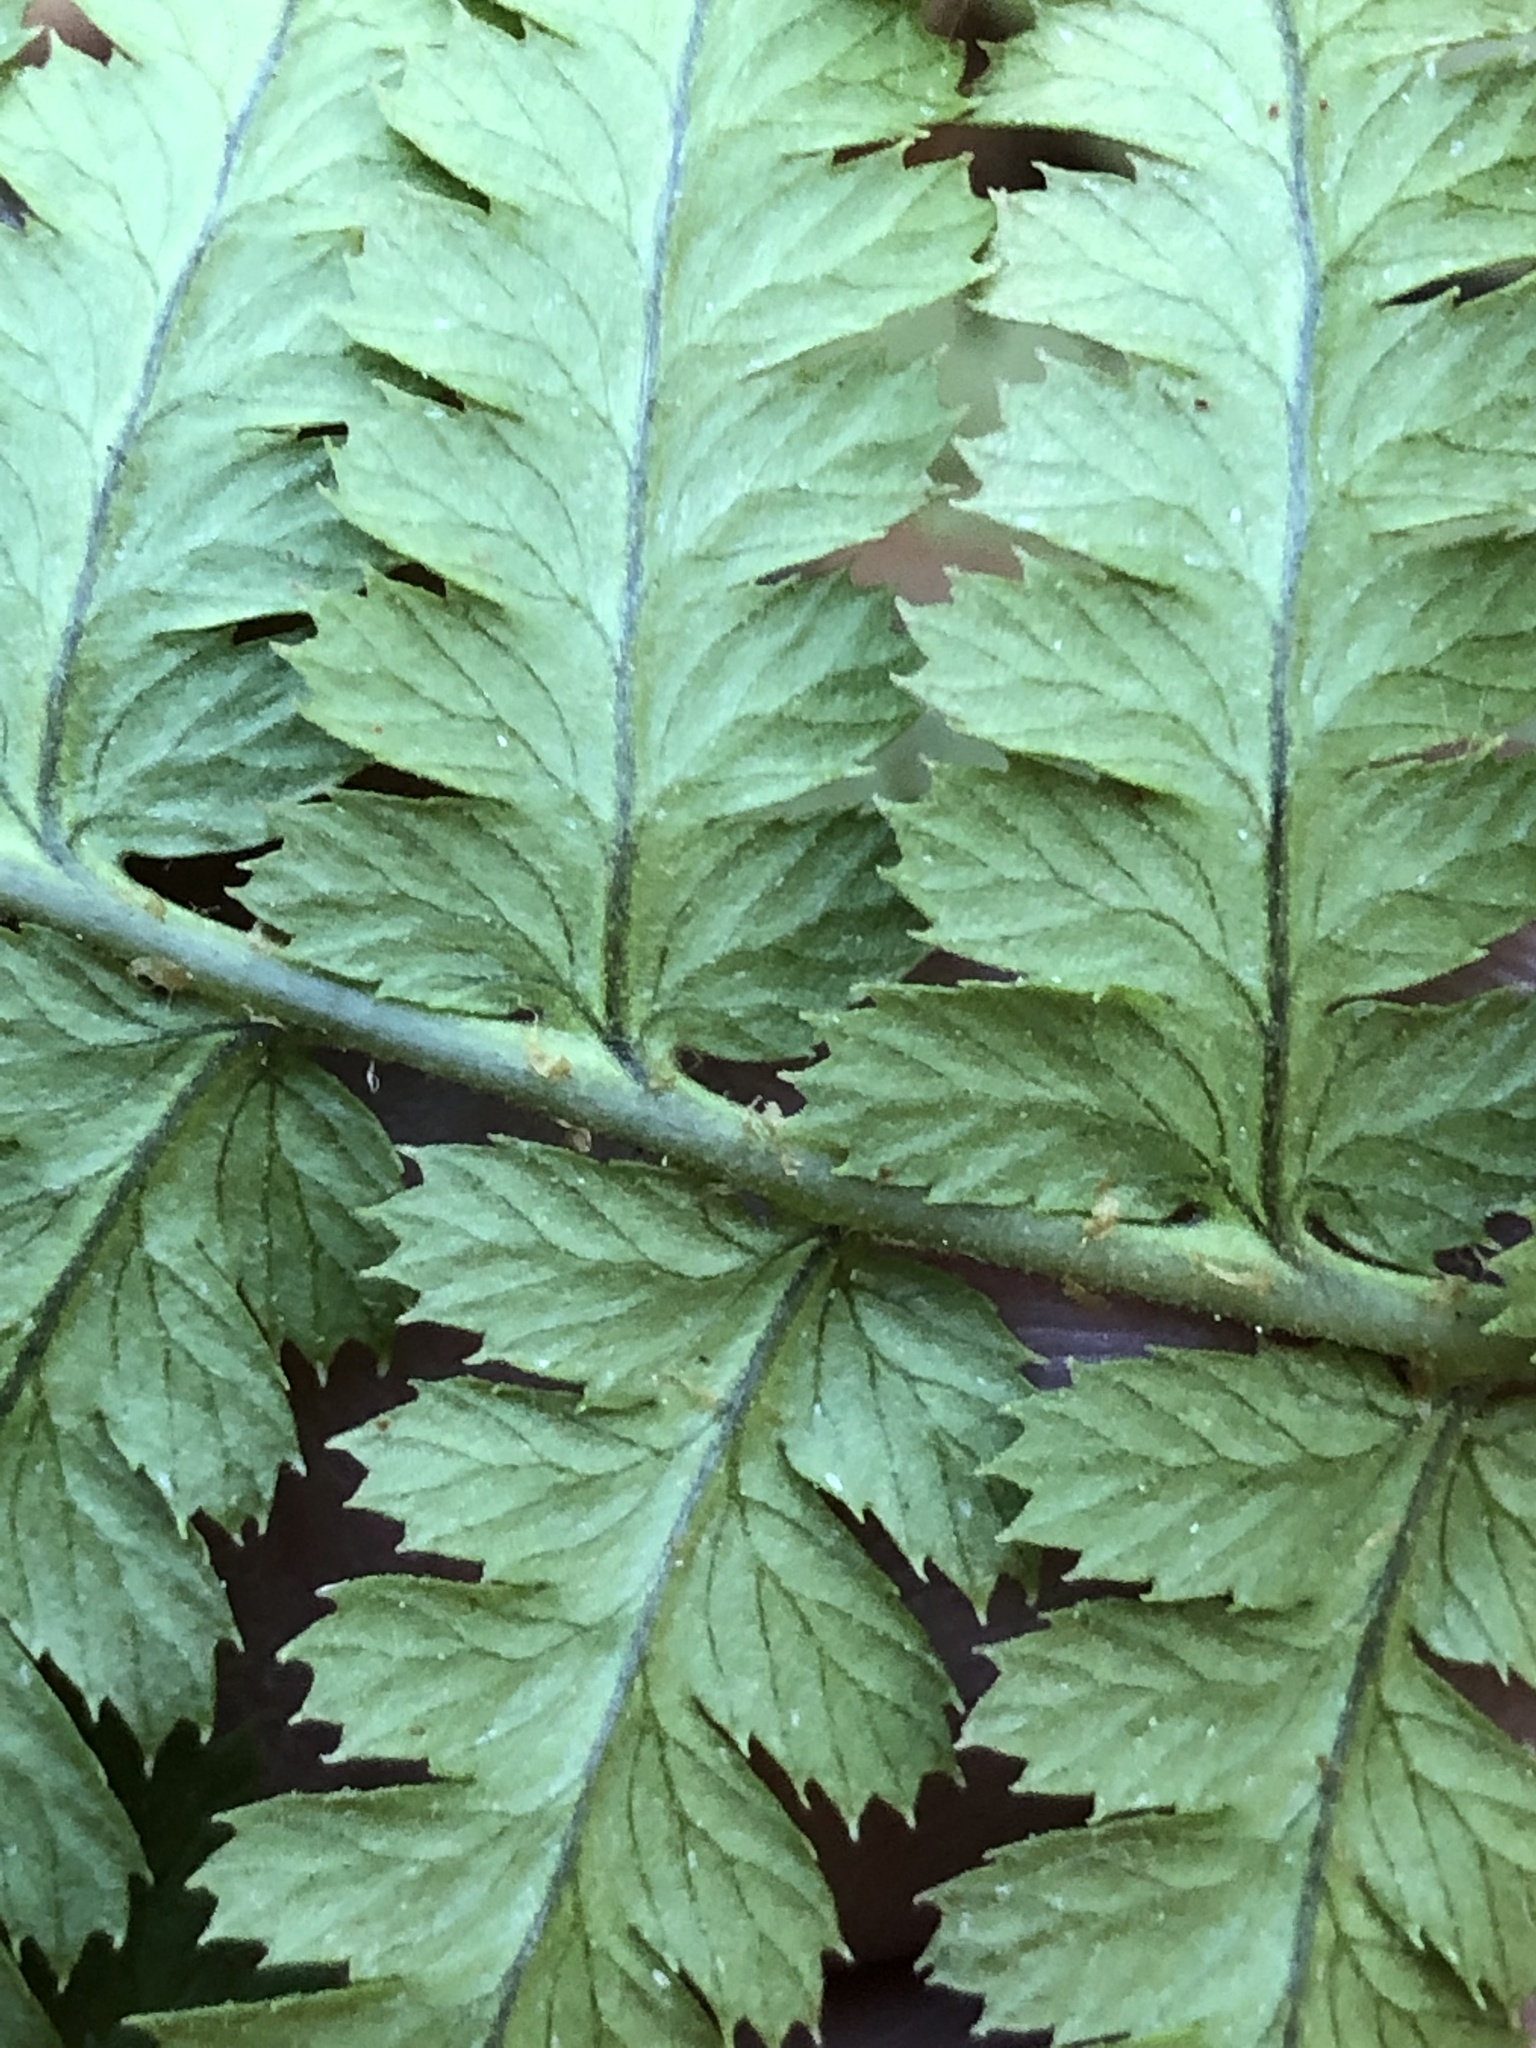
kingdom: Plantae
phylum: Tracheophyta
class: Polypodiopsida
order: Polypodiales
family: Dryopteridaceae
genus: Dryopteris
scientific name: Dryopteris arguta
